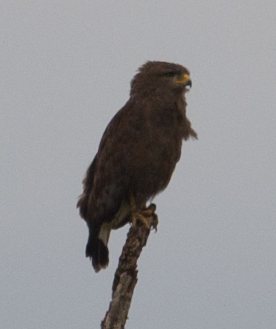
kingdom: Animalia
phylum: Chordata
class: Aves
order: Accipitriformes
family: Accipitridae
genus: Circaetus
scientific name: Circaetus cinerascens
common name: Western banded snake eagle
